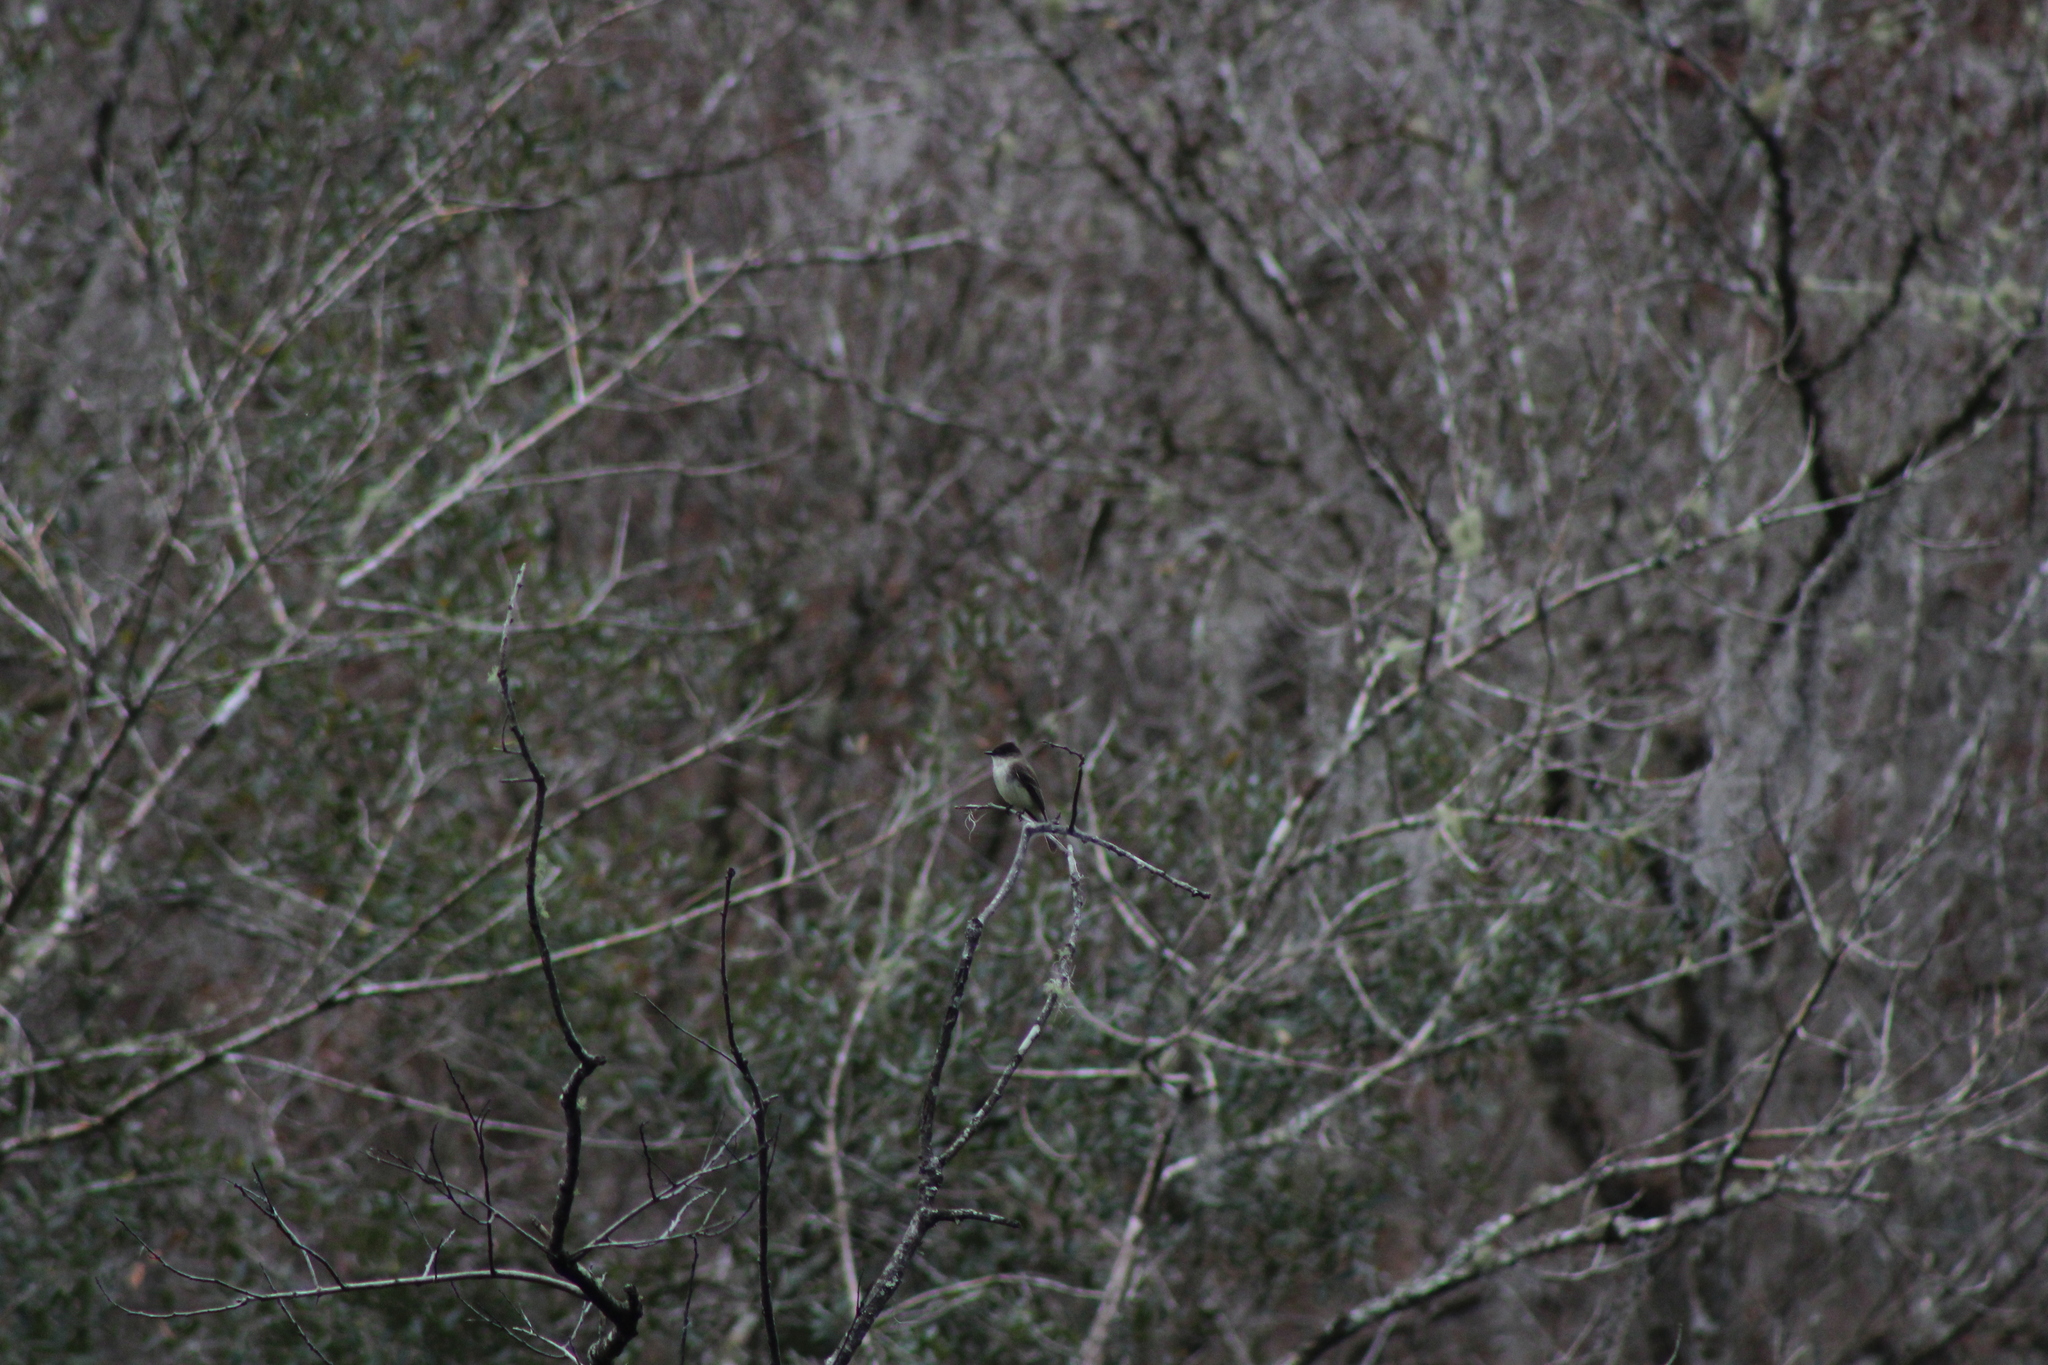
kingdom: Animalia
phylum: Chordata
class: Aves
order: Passeriformes
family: Tyrannidae
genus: Sayornis
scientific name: Sayornis phoebe
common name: Eastern phoebe
